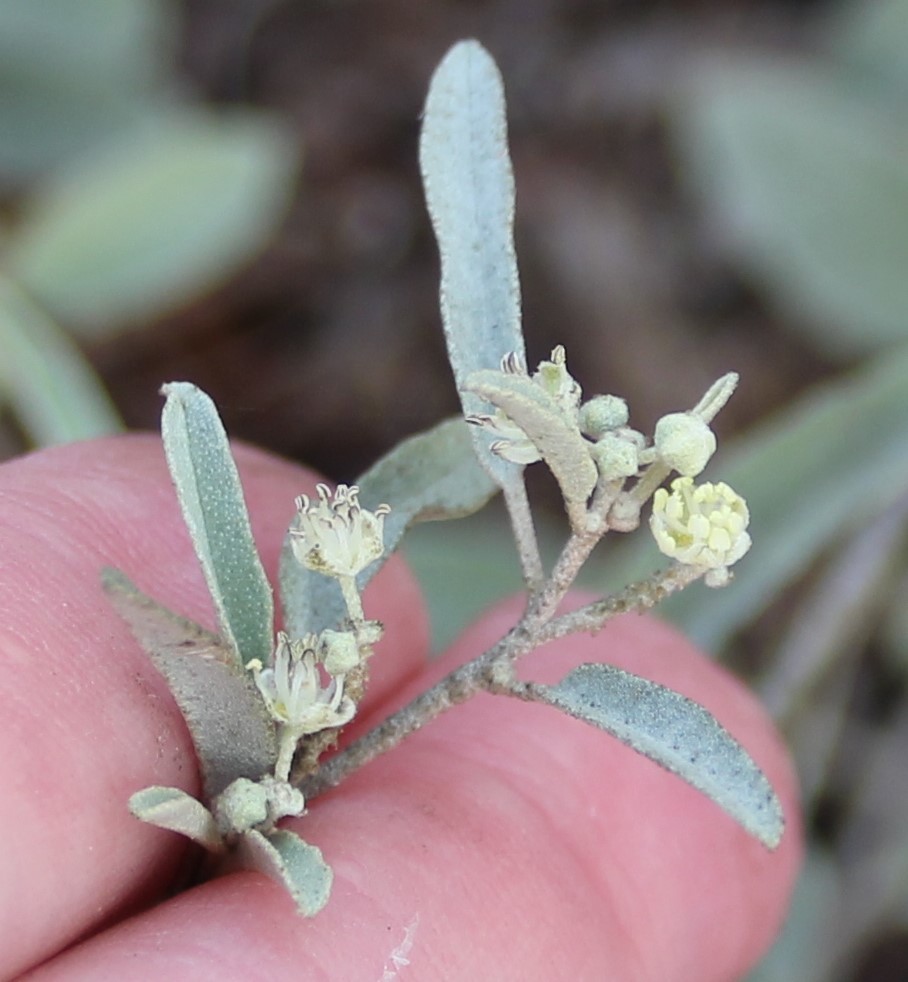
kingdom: Plantae
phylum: Tracheophyta
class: Magnoliopsida
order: Malpighiales
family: Euphorbiaceae
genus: Croton
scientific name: Croton californicus
